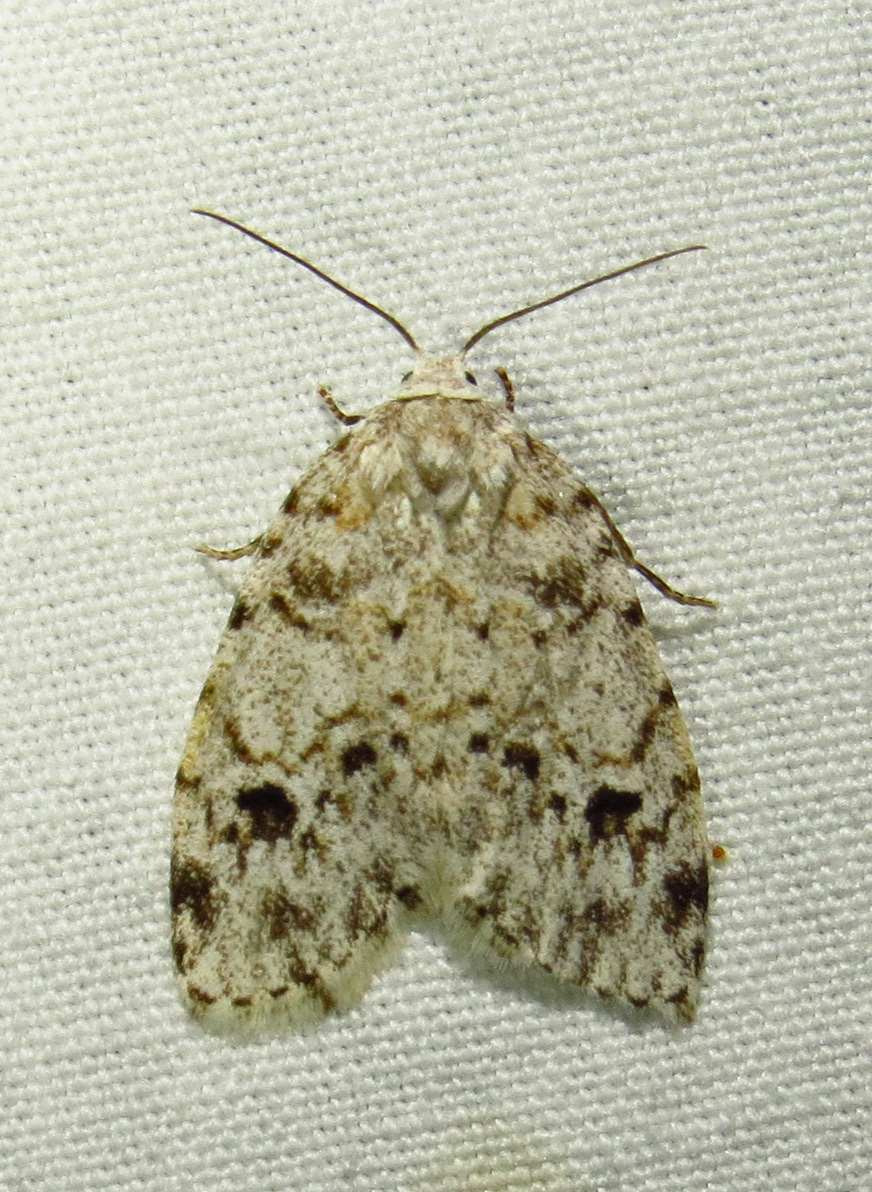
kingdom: Animalia
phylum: Arthropoda
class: Insecta
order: Lepidoptera
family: Erebidae
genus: Clemensia
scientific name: Clemensia albata
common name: Little white lichen moth
